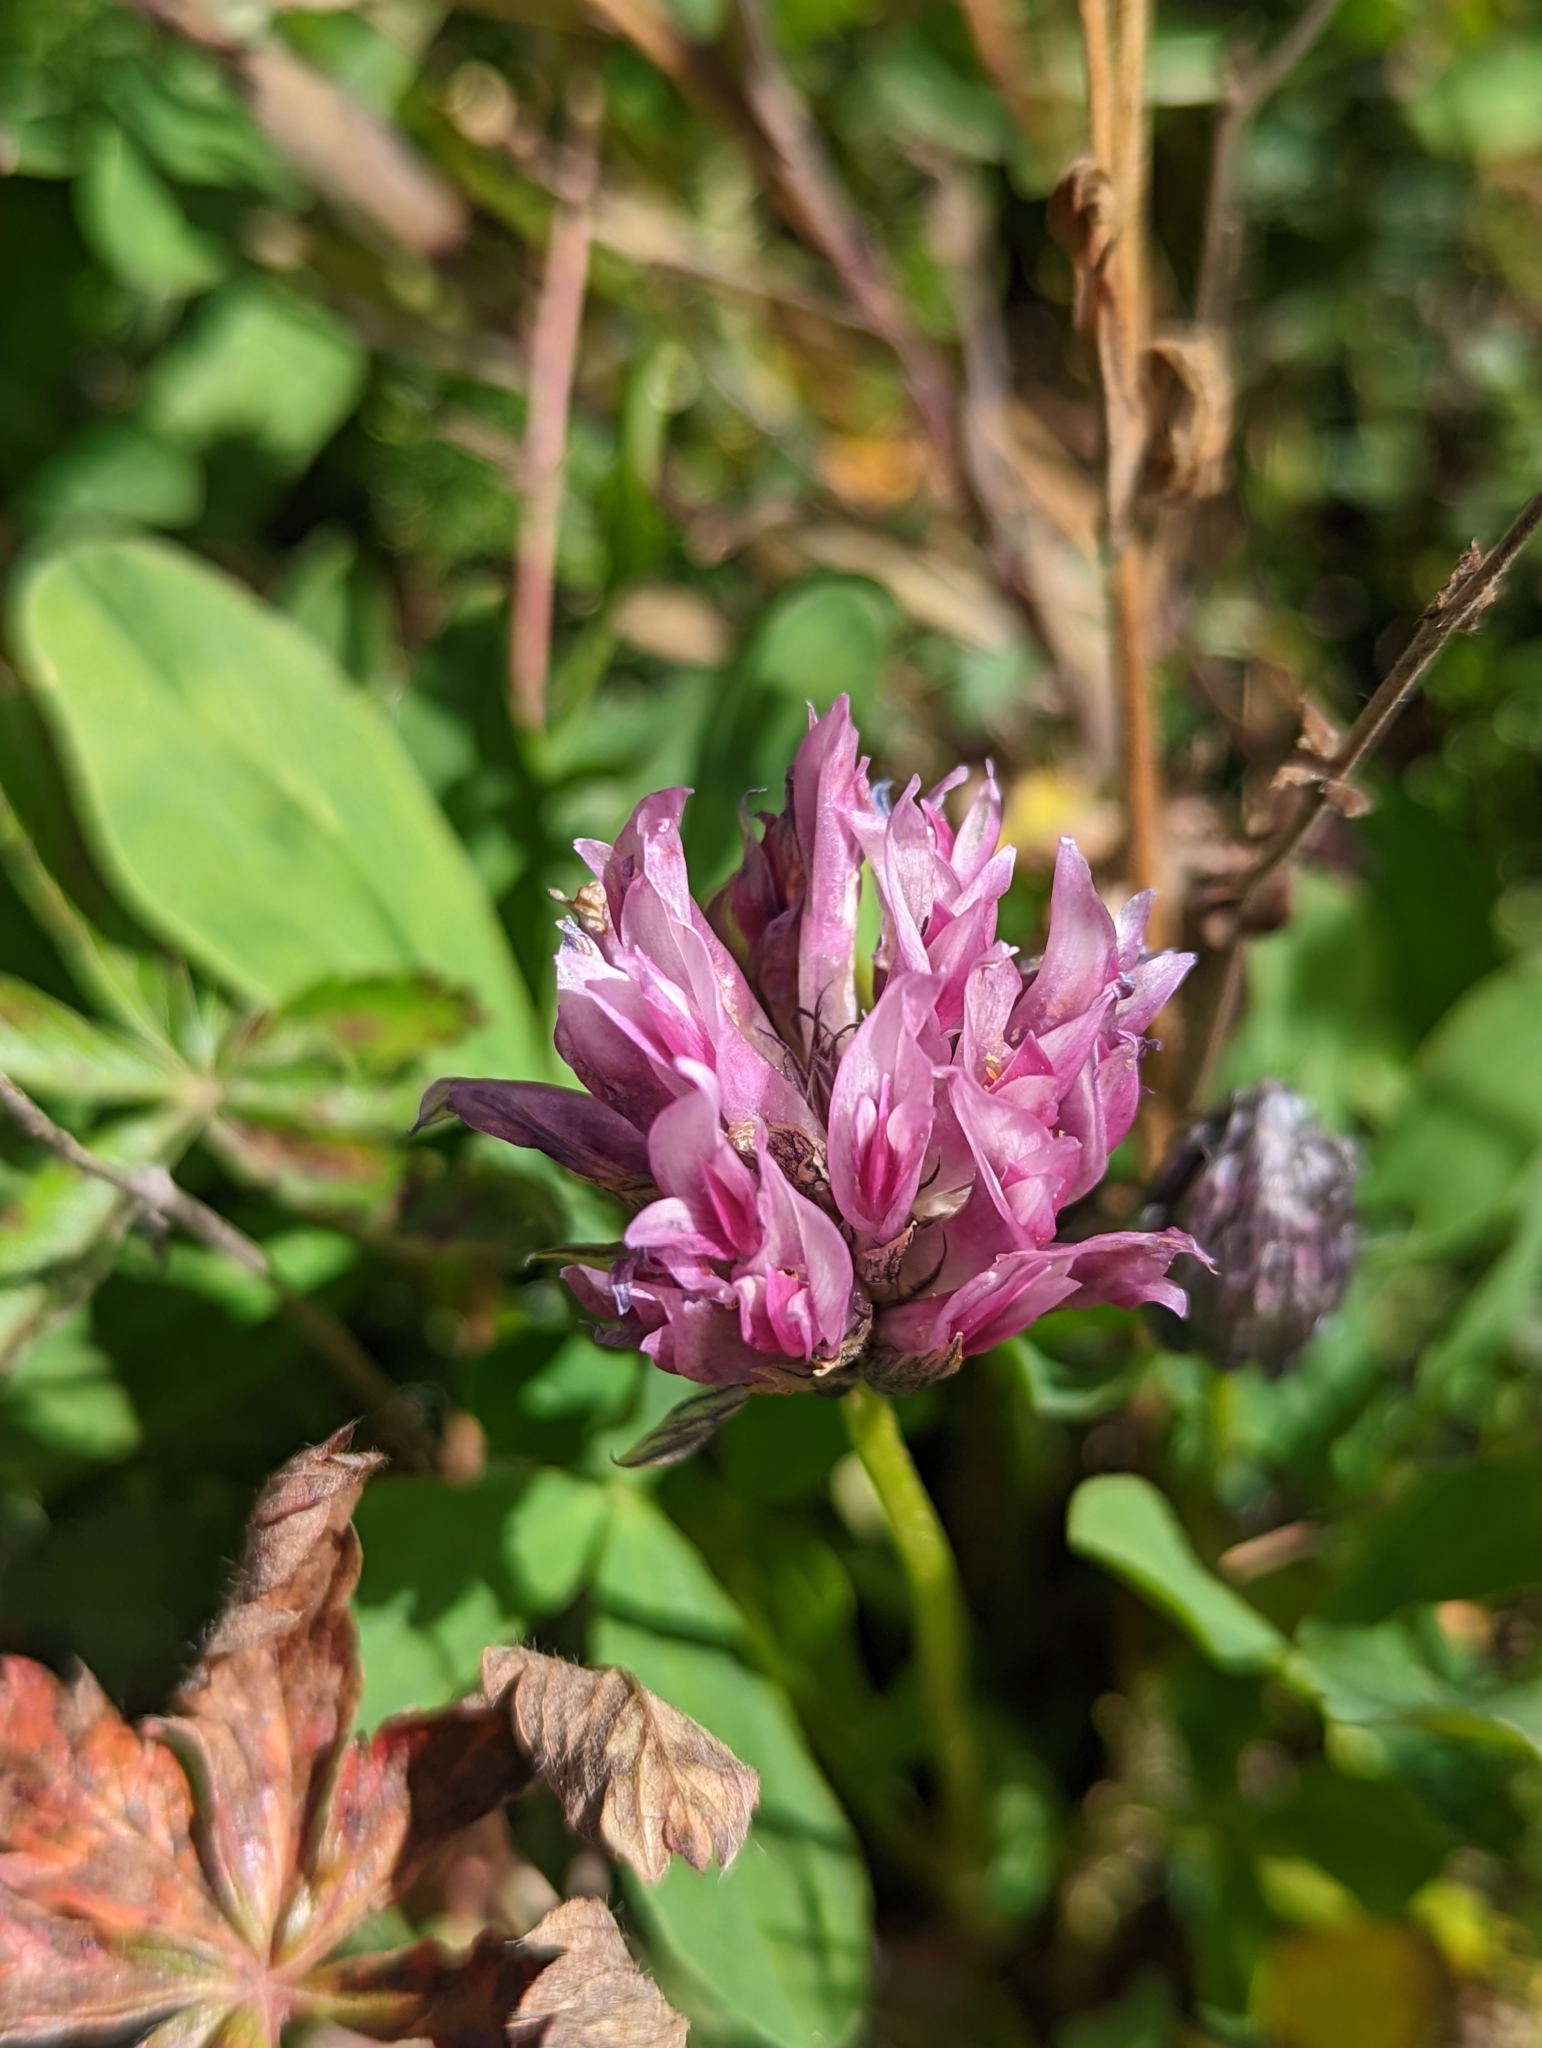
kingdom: Plantae
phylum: Tracheophyta
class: Magnoliopsida
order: Fabales
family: Fabaceae
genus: Trifolium
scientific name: Trifolium parryi
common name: Parry's clover
